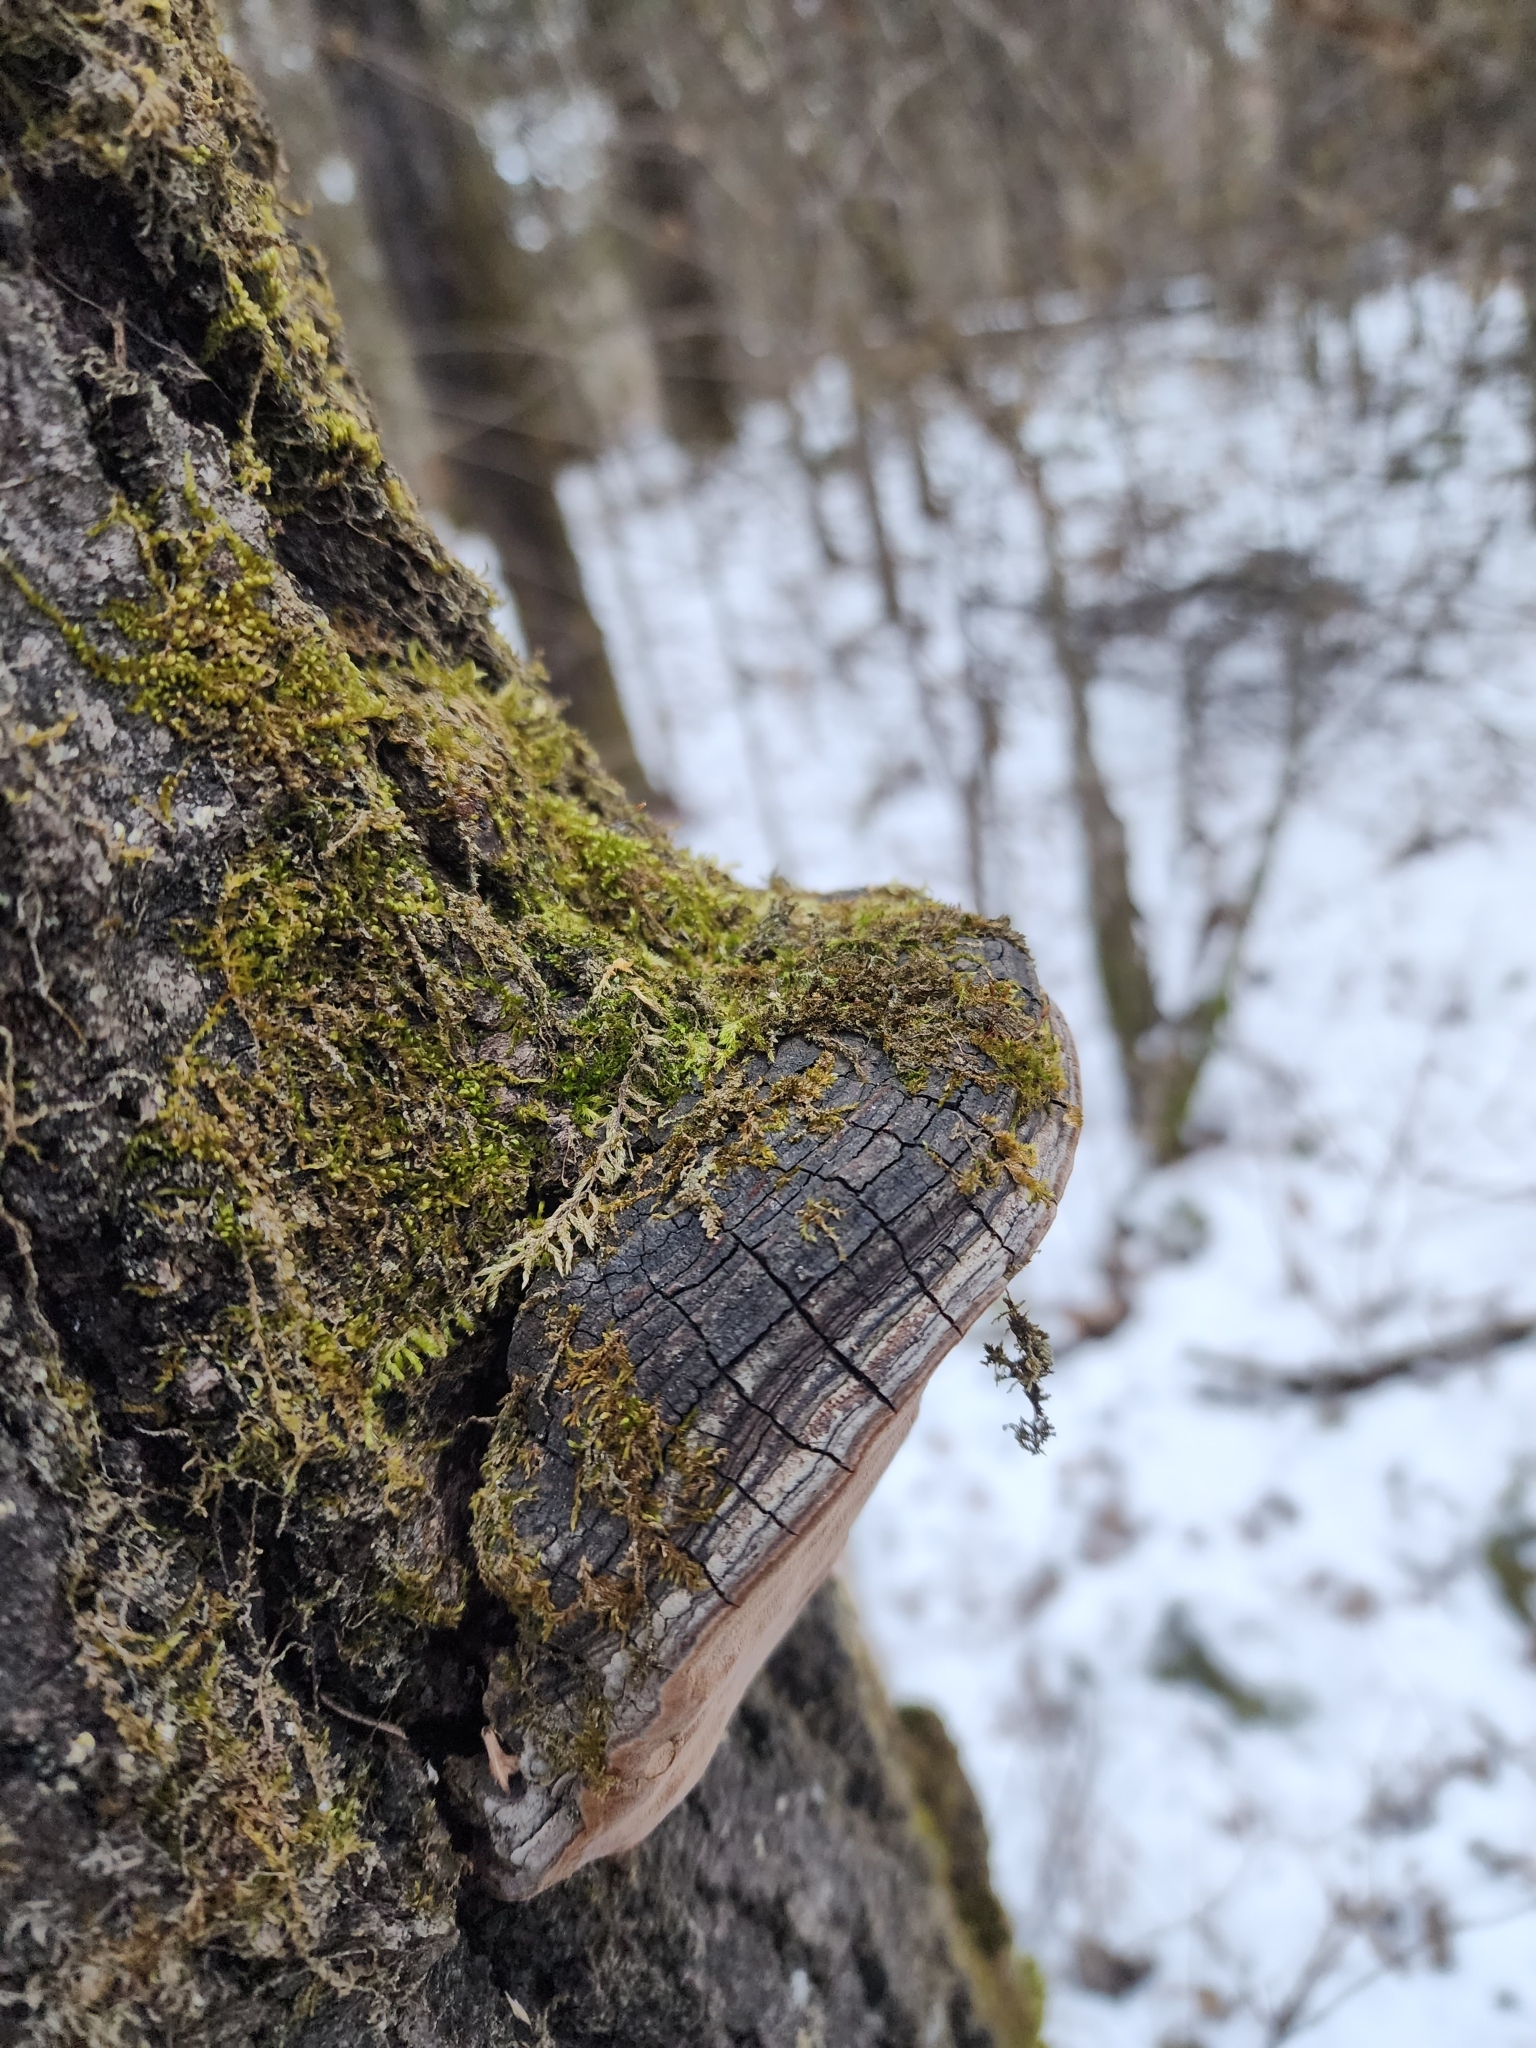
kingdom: Fungi
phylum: Basidiomycota
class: Agaricomycetes
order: Hymenochaetales
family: Hymenochaetaceae
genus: Phellinus
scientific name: Phellinus tremulae
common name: Aspen bracket
